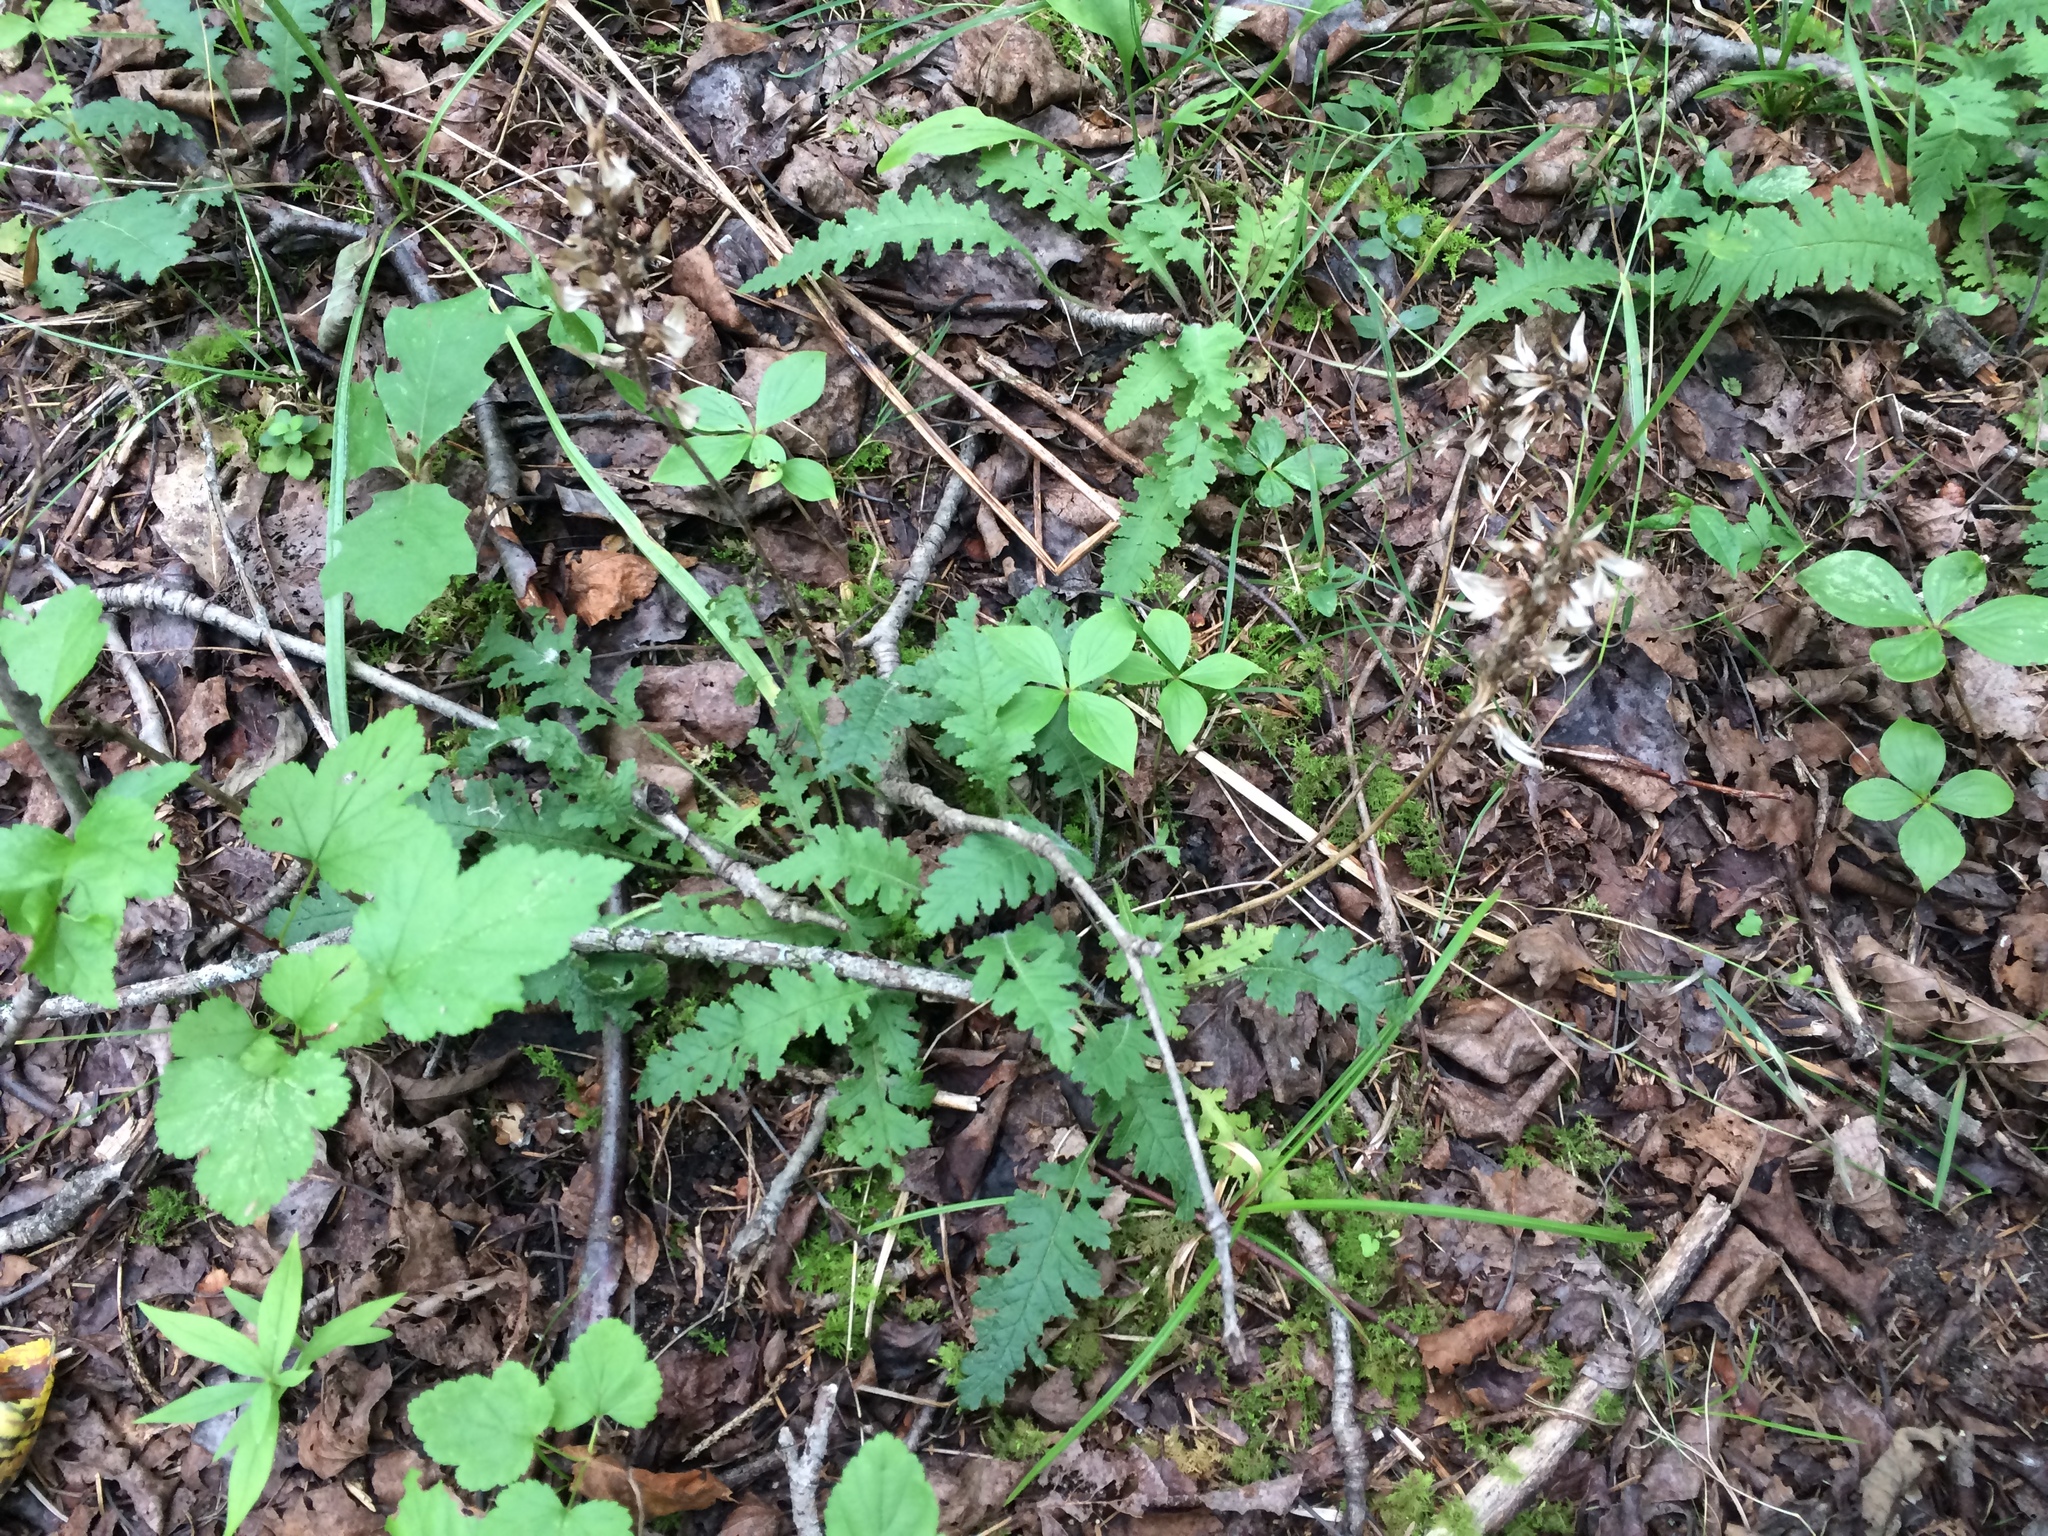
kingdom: Plantae
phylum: Tracheophyta
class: Magnoliopsida
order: Lamiales
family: Orobanchaceae
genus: Pedicularis
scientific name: Pedicularis canadensis
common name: Early lousewort
